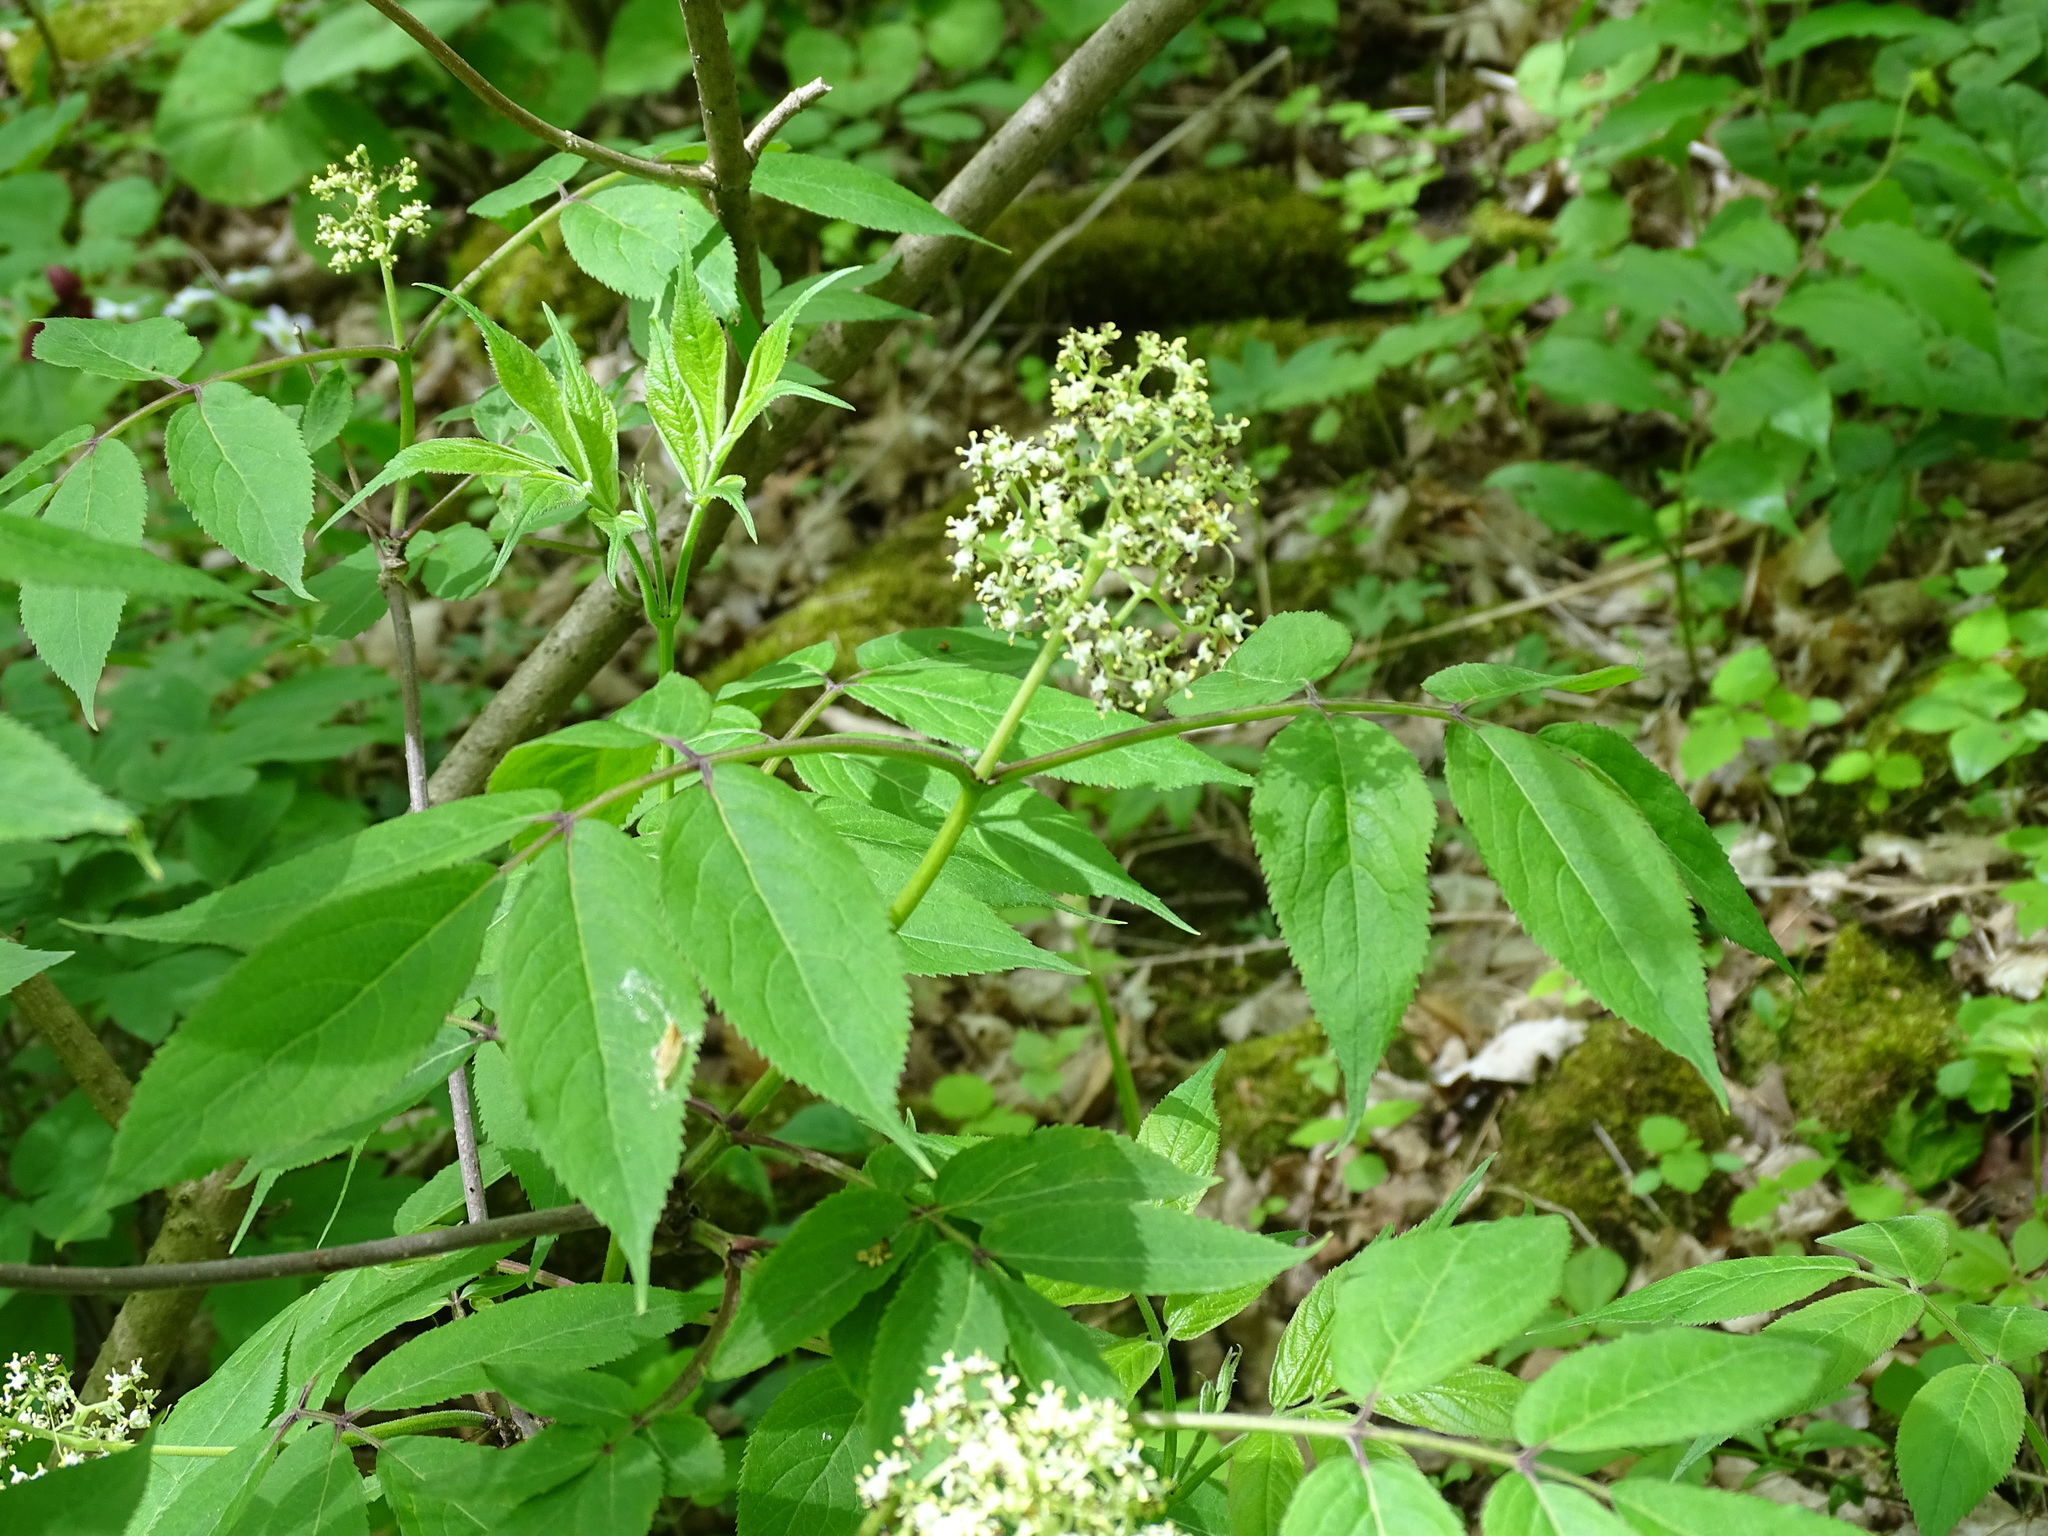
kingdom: Plantae
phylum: Tracheophyta
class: Magnoliopsida
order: Dipsacales
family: Viburnaceae
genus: Sambucus
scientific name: Sambucus racemosa
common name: Red-berried elder
